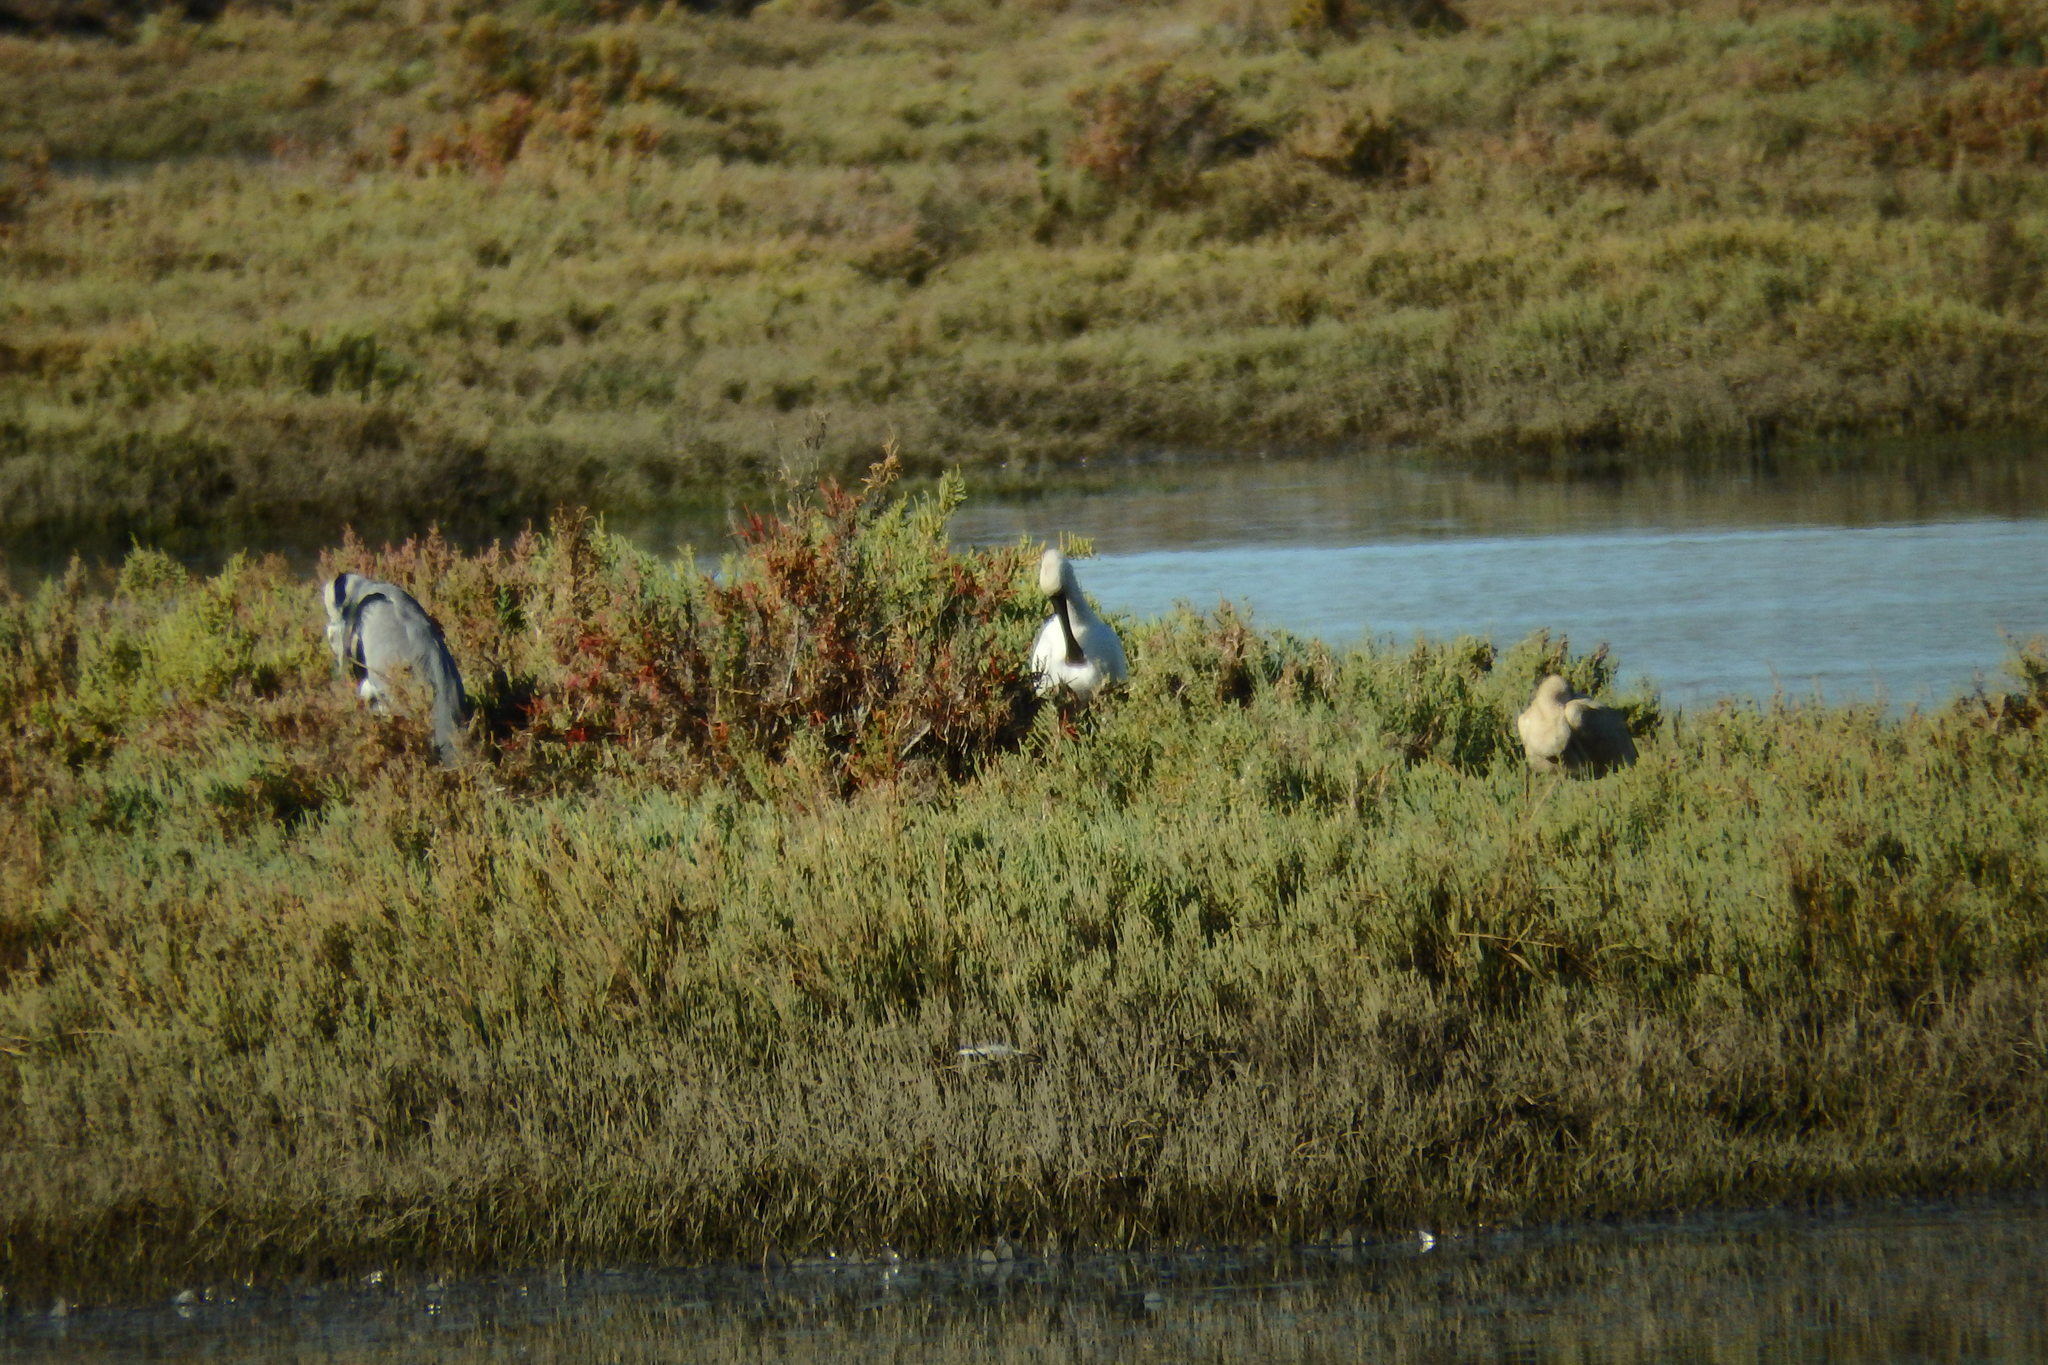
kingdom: Animalia
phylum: Chordata
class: Aves
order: Pelecaniformes
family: Threskiornithidae
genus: Platalea
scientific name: Platalea leucorodia
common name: Eurasian spoonbill
